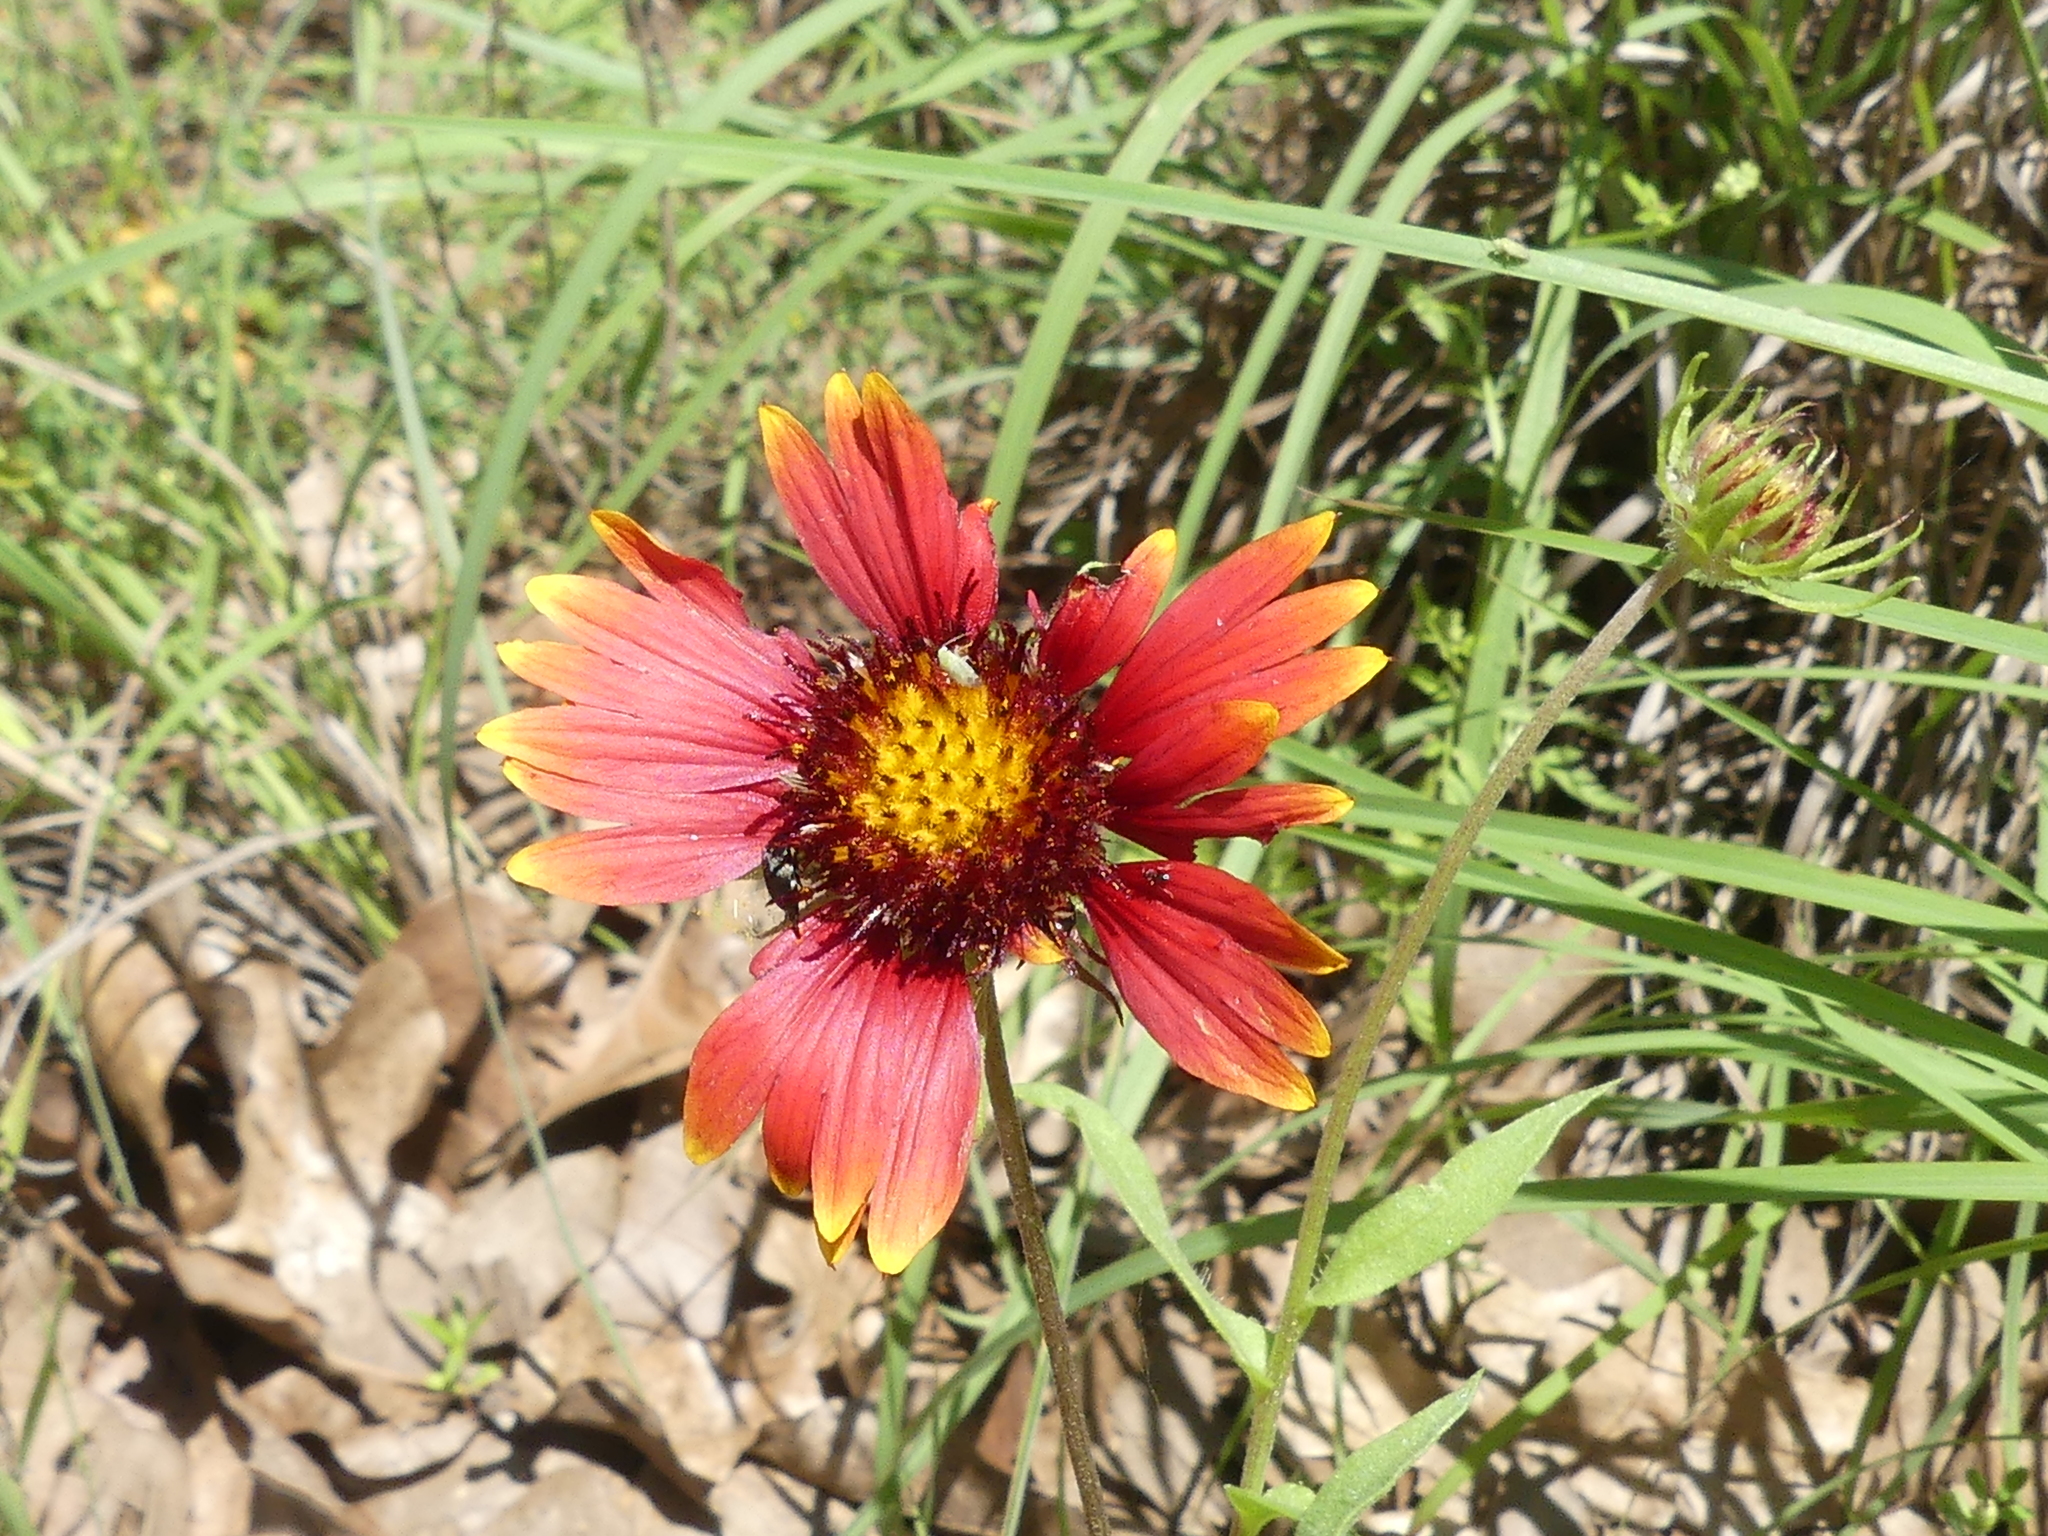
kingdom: Plantae
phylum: Tracheophyta
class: Magnoliopsida
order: Asterales
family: Asteraceae
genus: Gaillardia
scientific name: Gaillardia pulchella
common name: Firewheel
